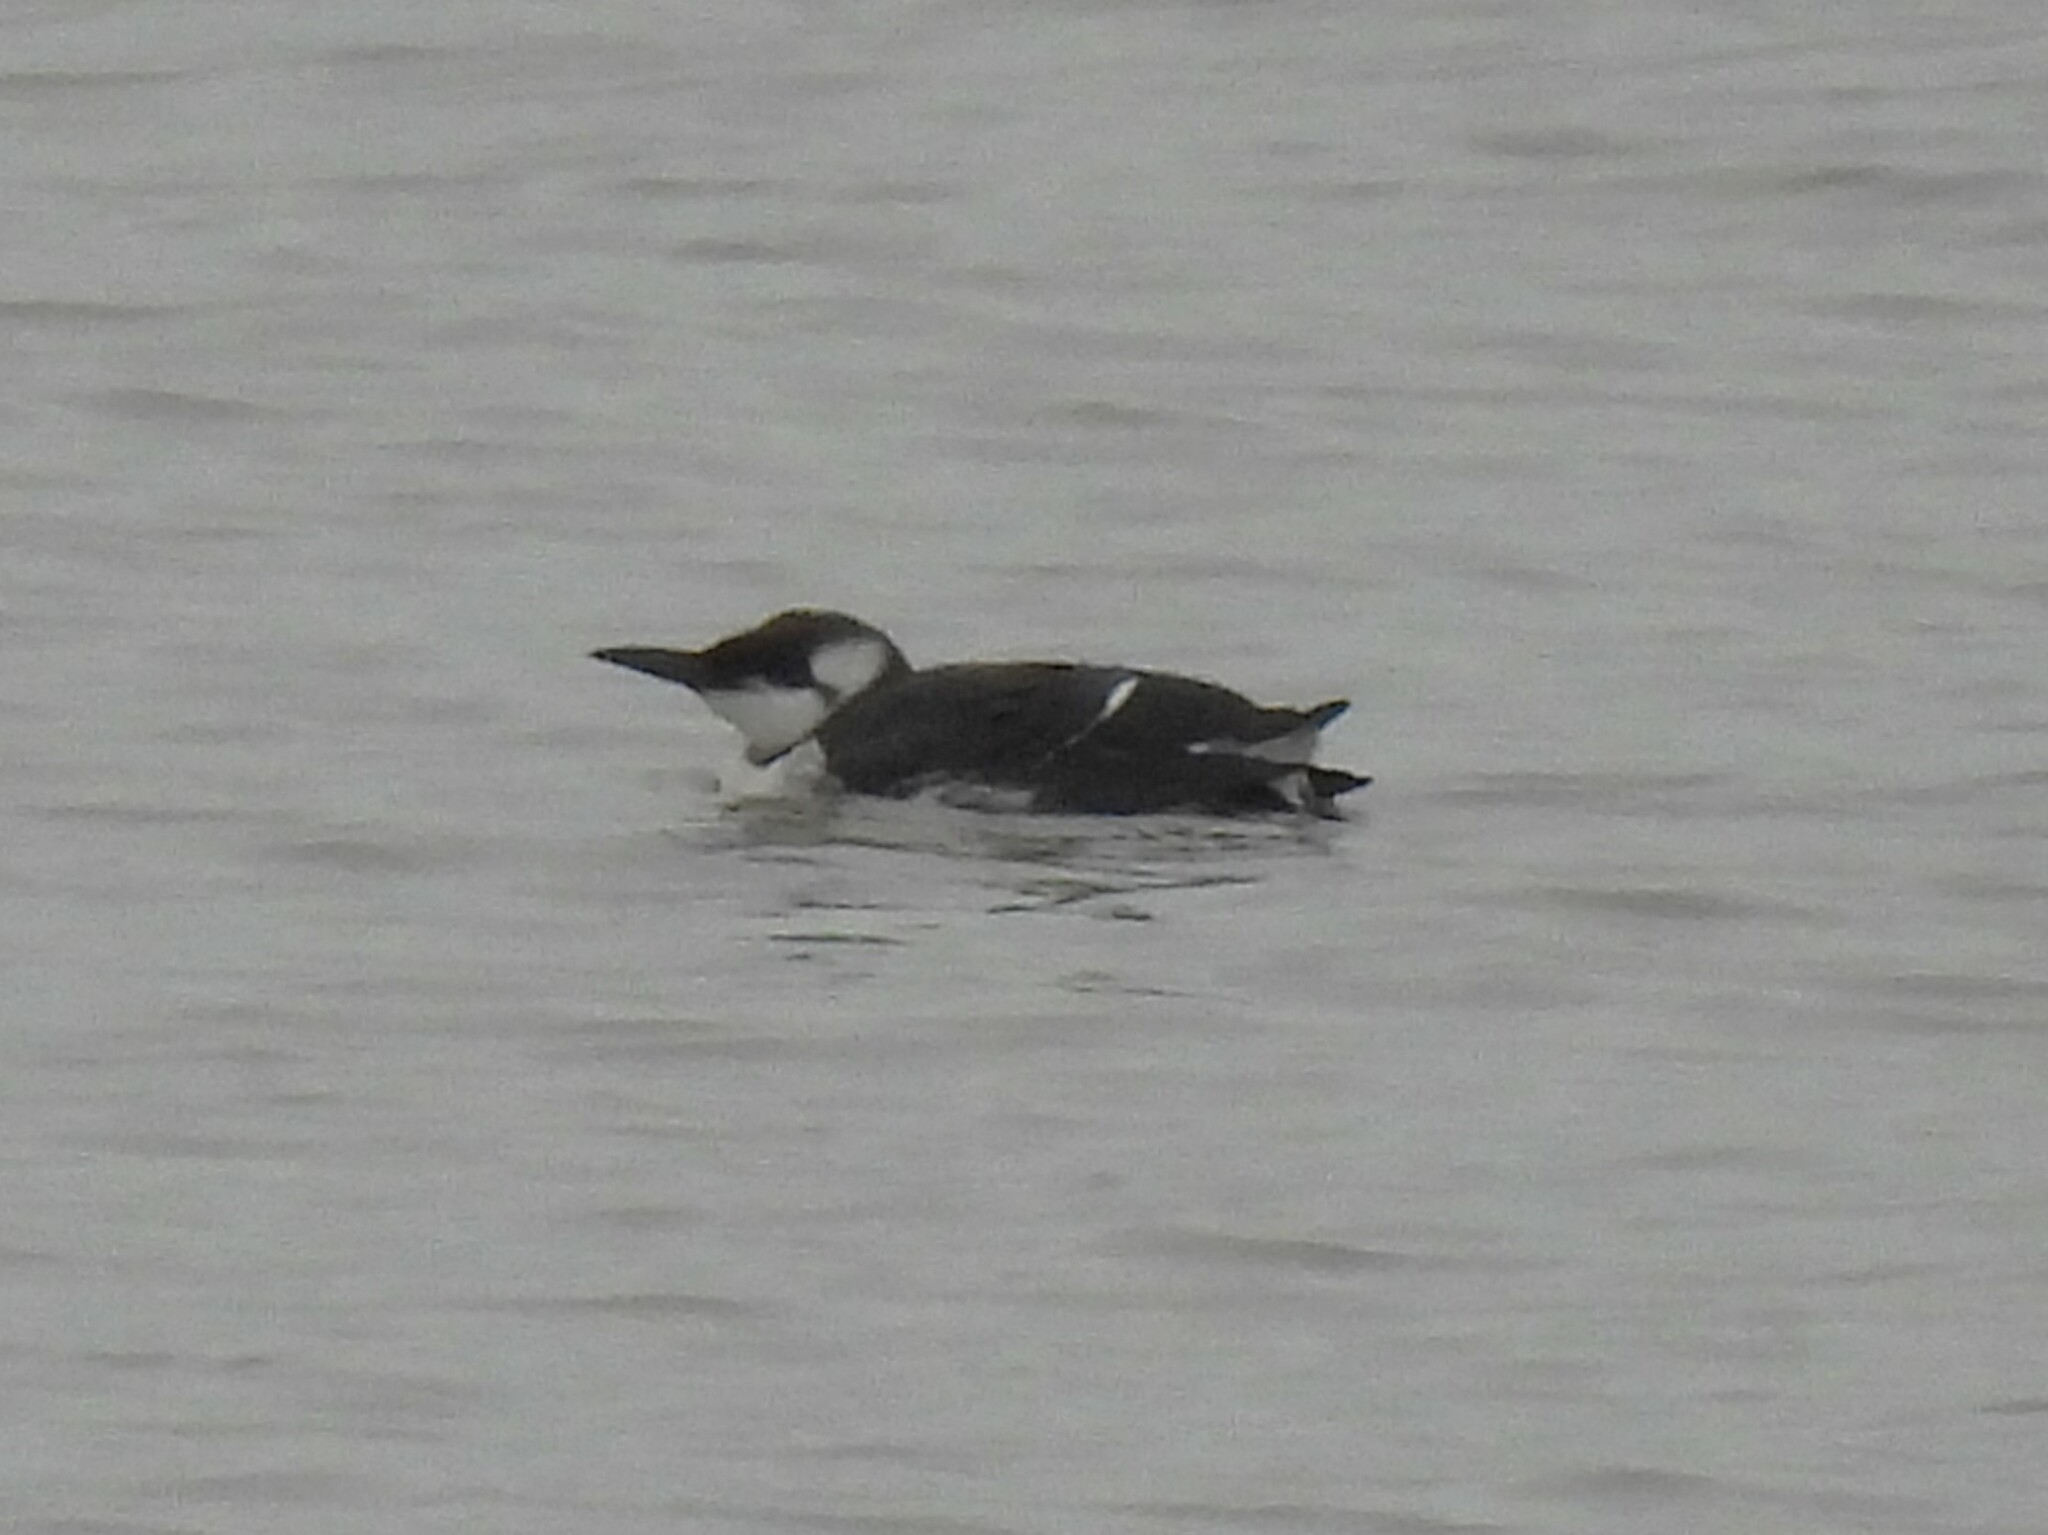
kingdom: Animalia
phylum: Chordata
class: Aves
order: Charadriiformes
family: Alcidae
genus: Uria
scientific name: Uria aalge
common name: Common murre
